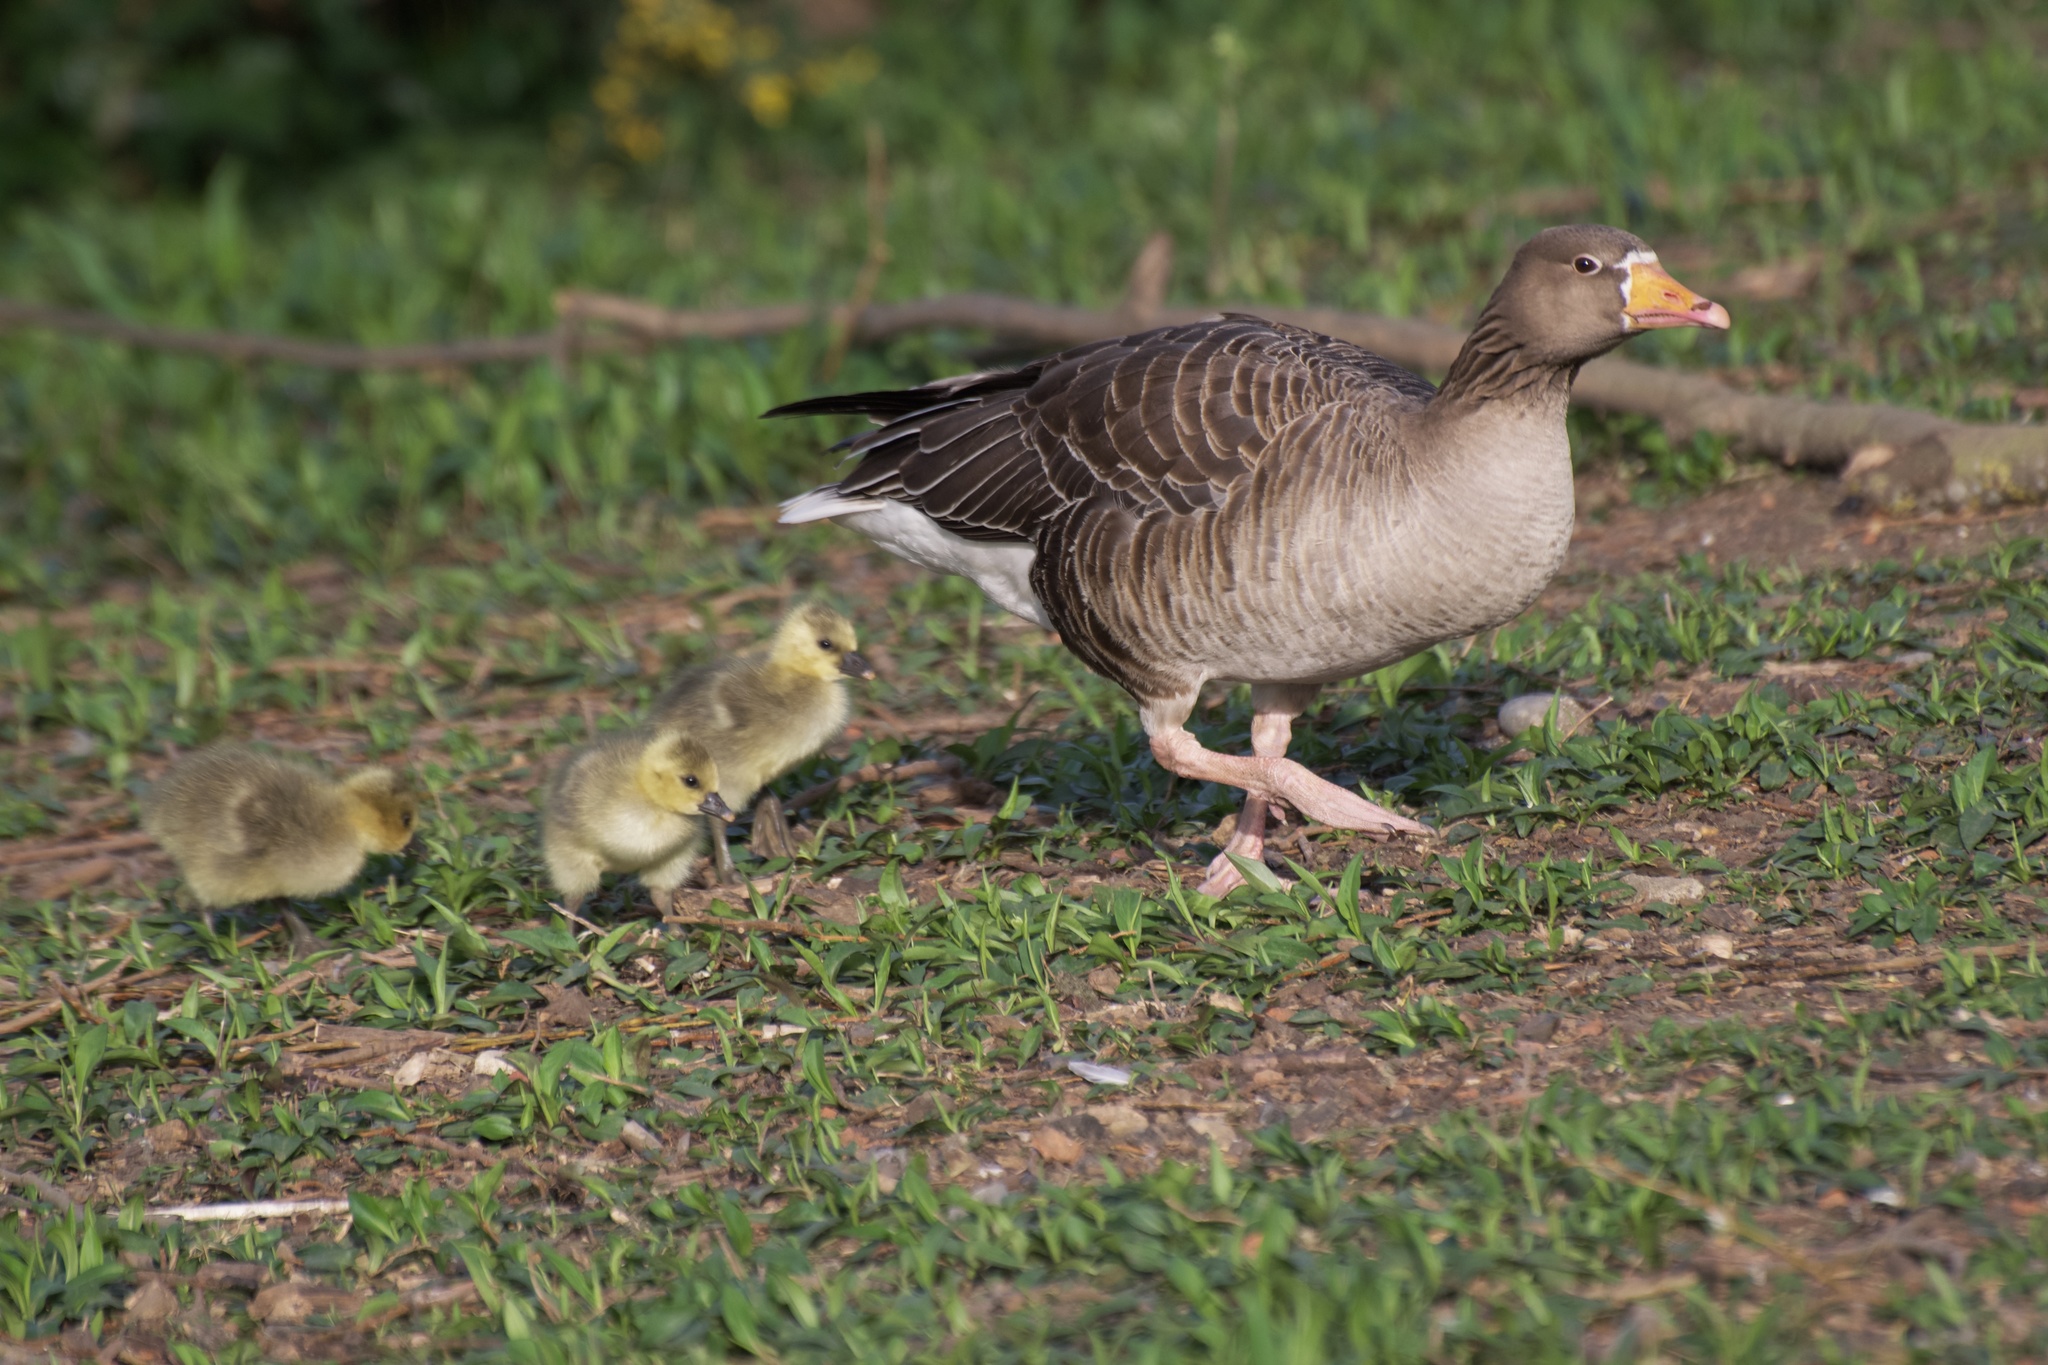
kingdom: Animalia
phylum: Chordata
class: Aves
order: Anseriformes
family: Anatidae
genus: Anser
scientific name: Anser anser
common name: Greylag goose
